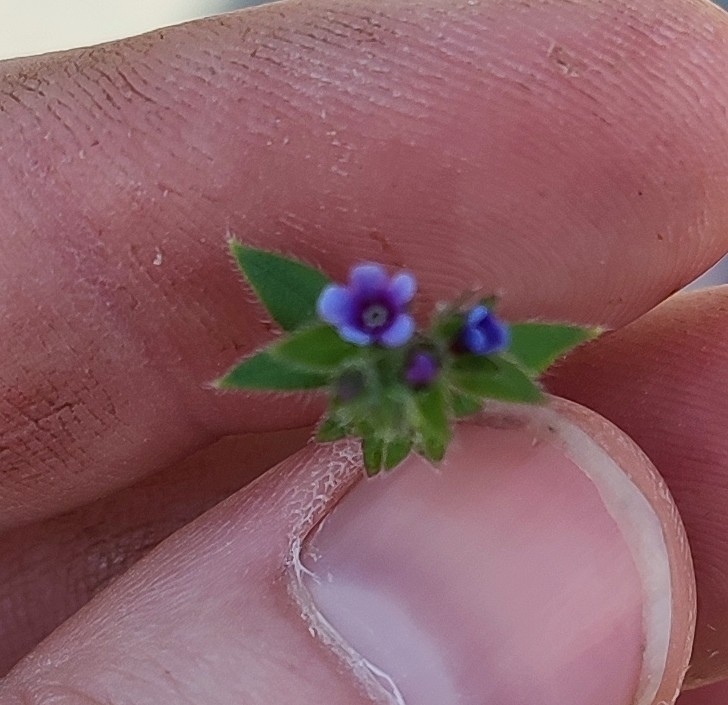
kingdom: Plantae
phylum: Tracheophyta
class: Magnoliopsida
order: Boraginales
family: Boraginaceae
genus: Asperugo
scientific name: Asperugo procumbens
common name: Madwort
